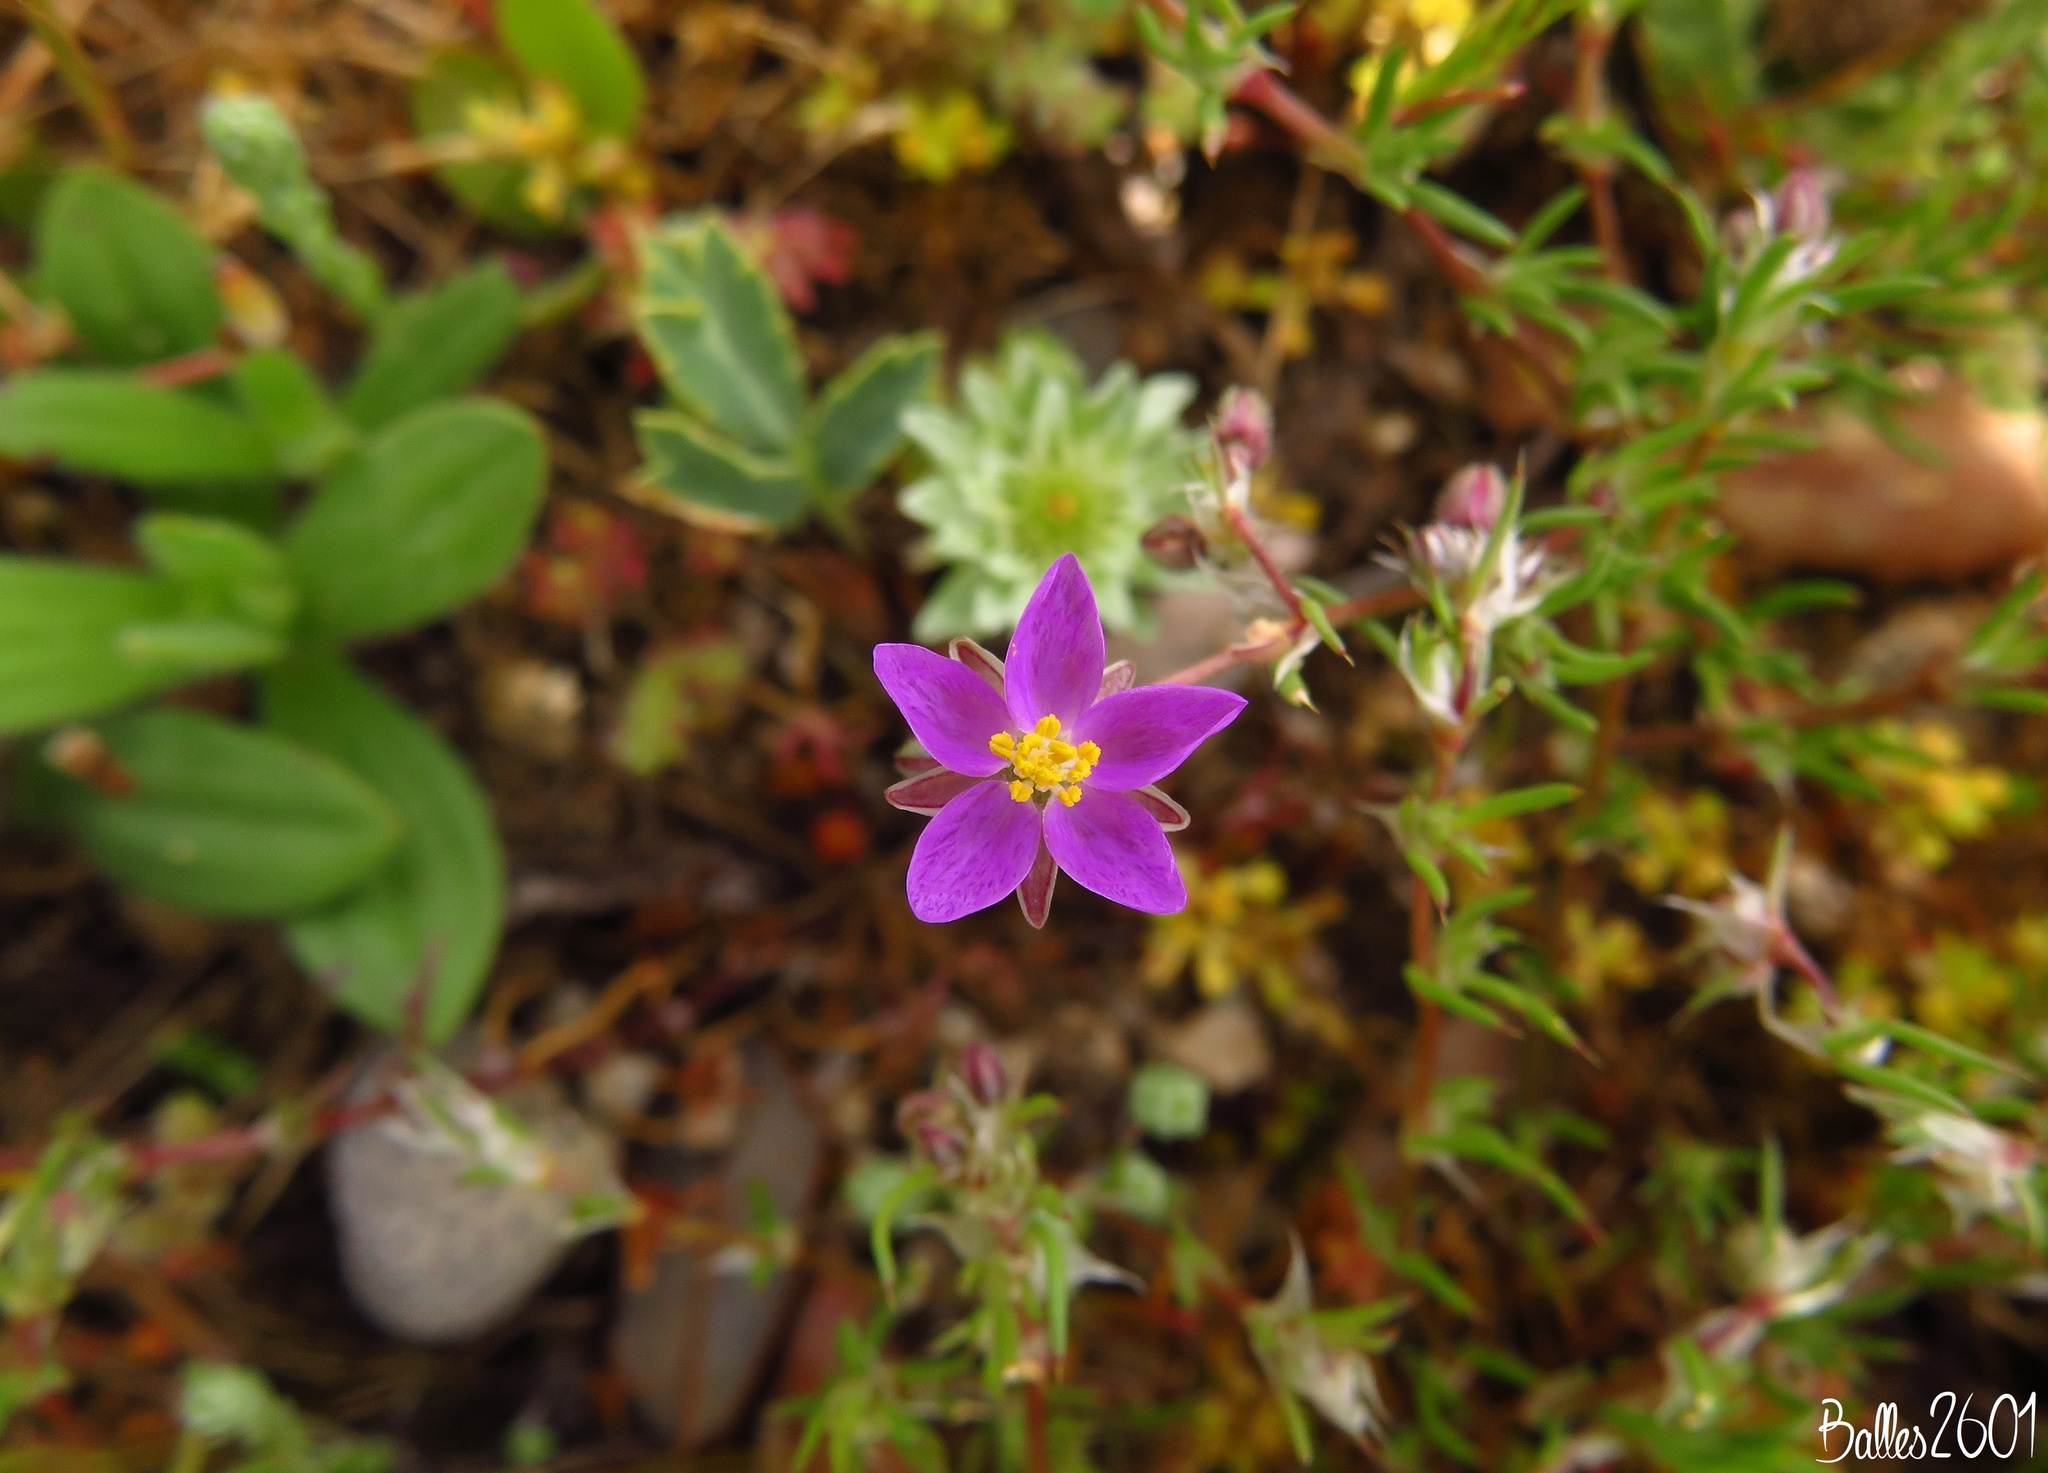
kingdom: Plantae
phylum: Tracheophyta
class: Magnoliopsida
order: Caryophyllales
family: Caryophyllaceae
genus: Spergularia
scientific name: Spergularia purpurea
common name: Purple sandspurry
